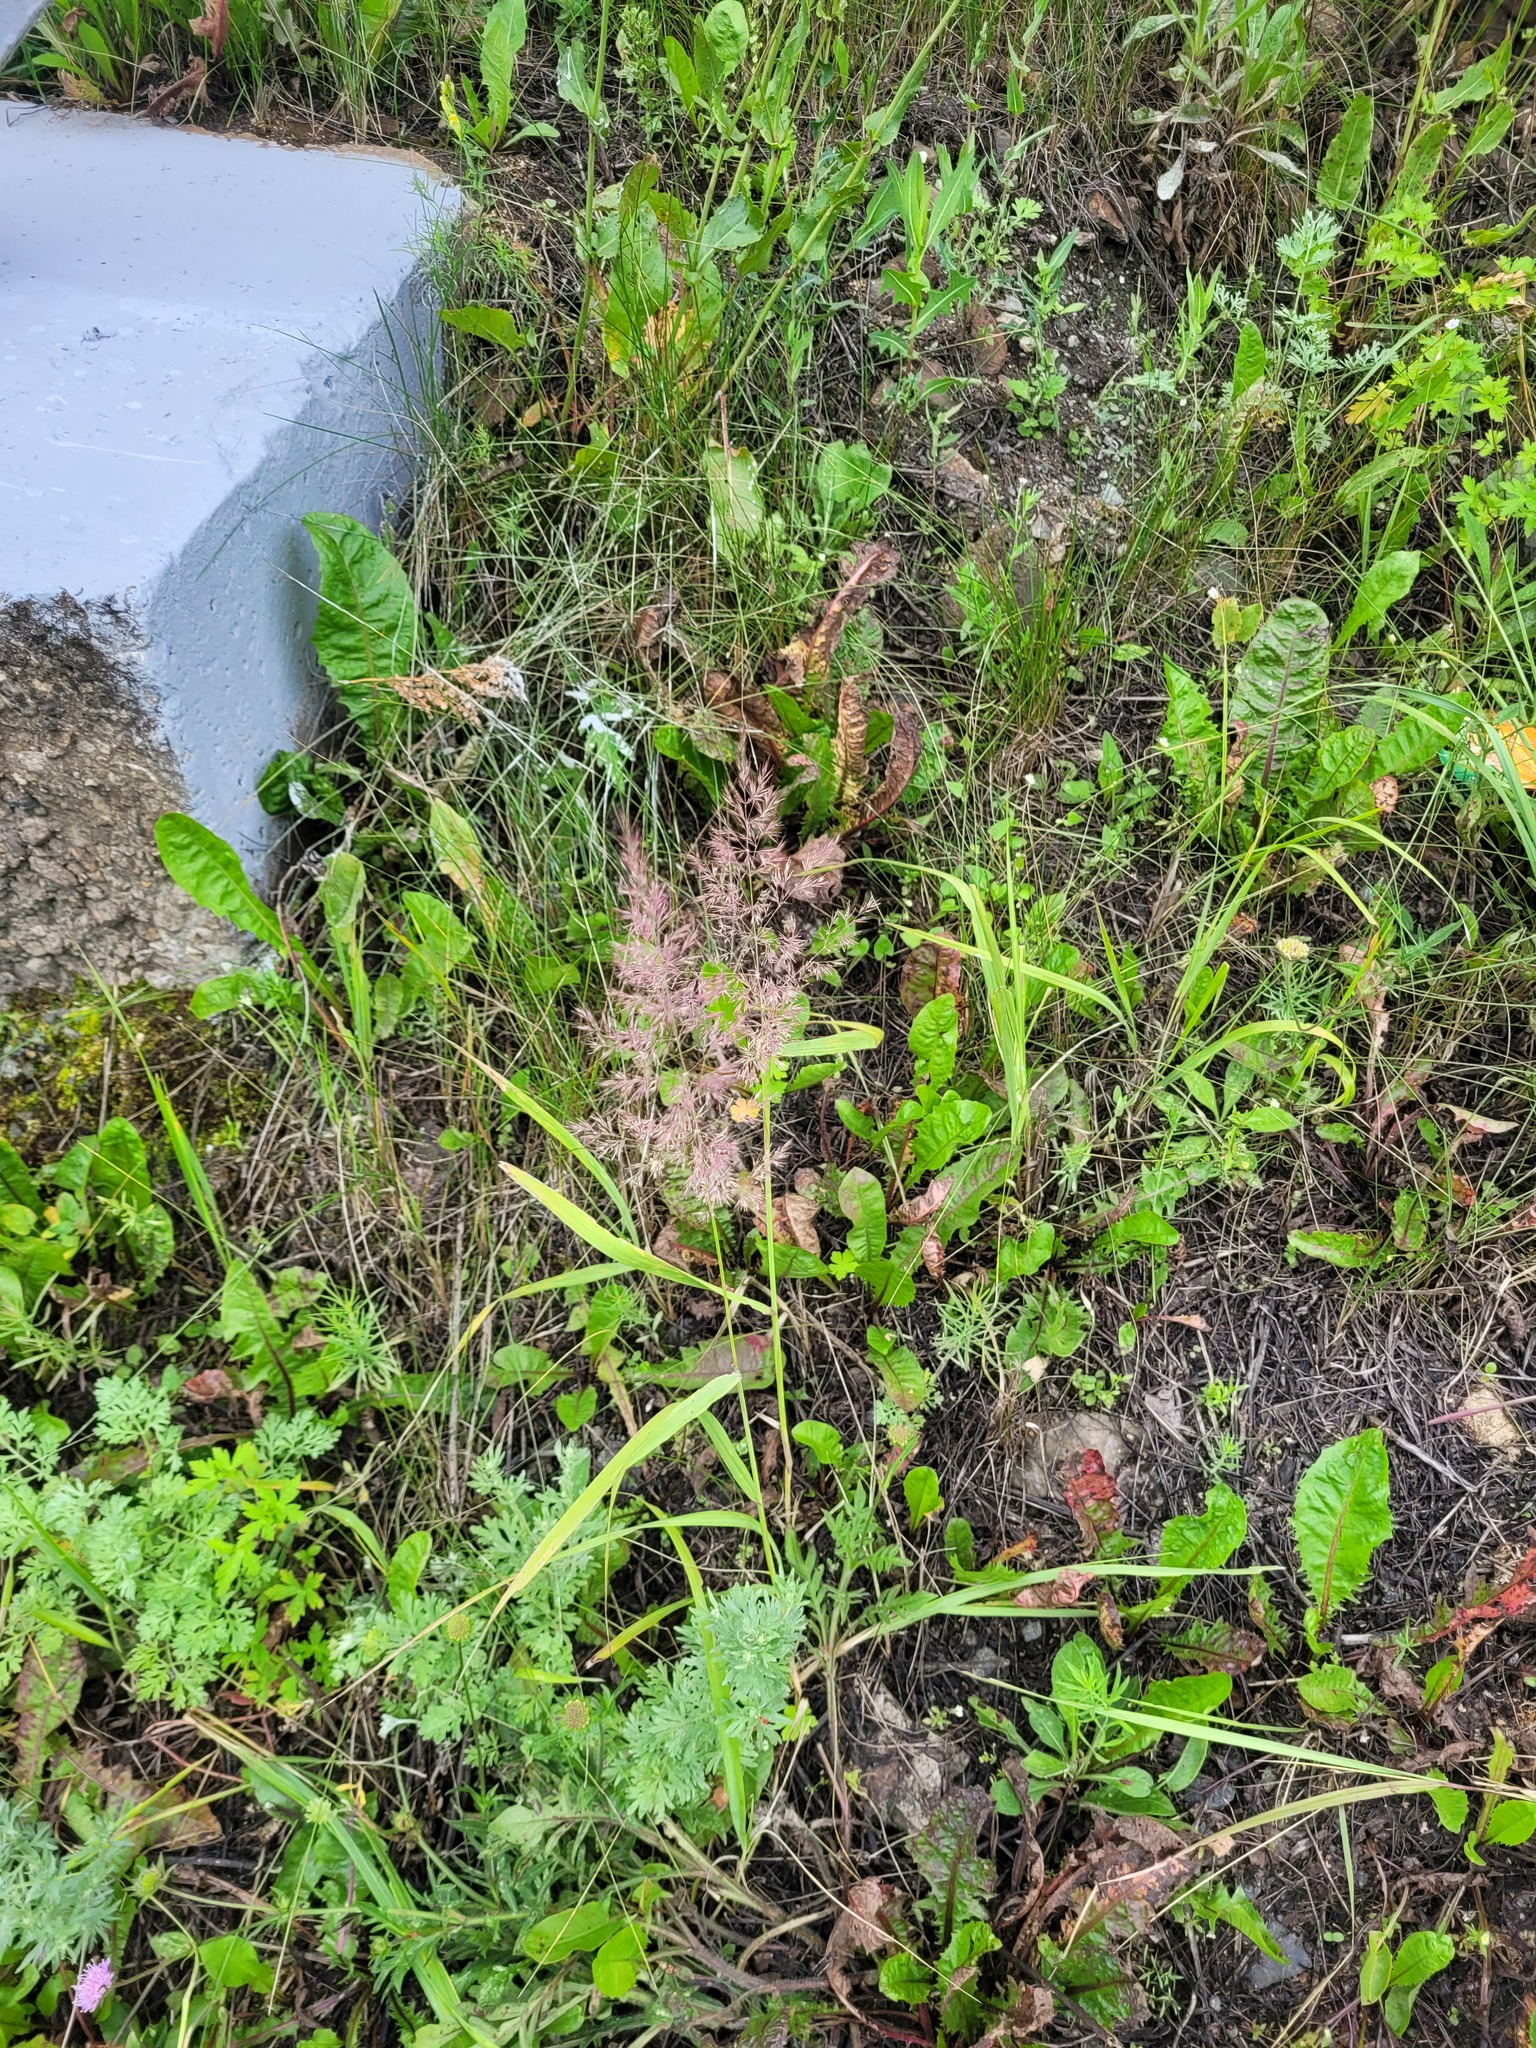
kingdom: Plantae
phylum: Tracheophyta
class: Liliopsida
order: Poales
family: Poaceae
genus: Calamagrostis
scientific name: Calamagrostis epigejos
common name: Wood small-reed
